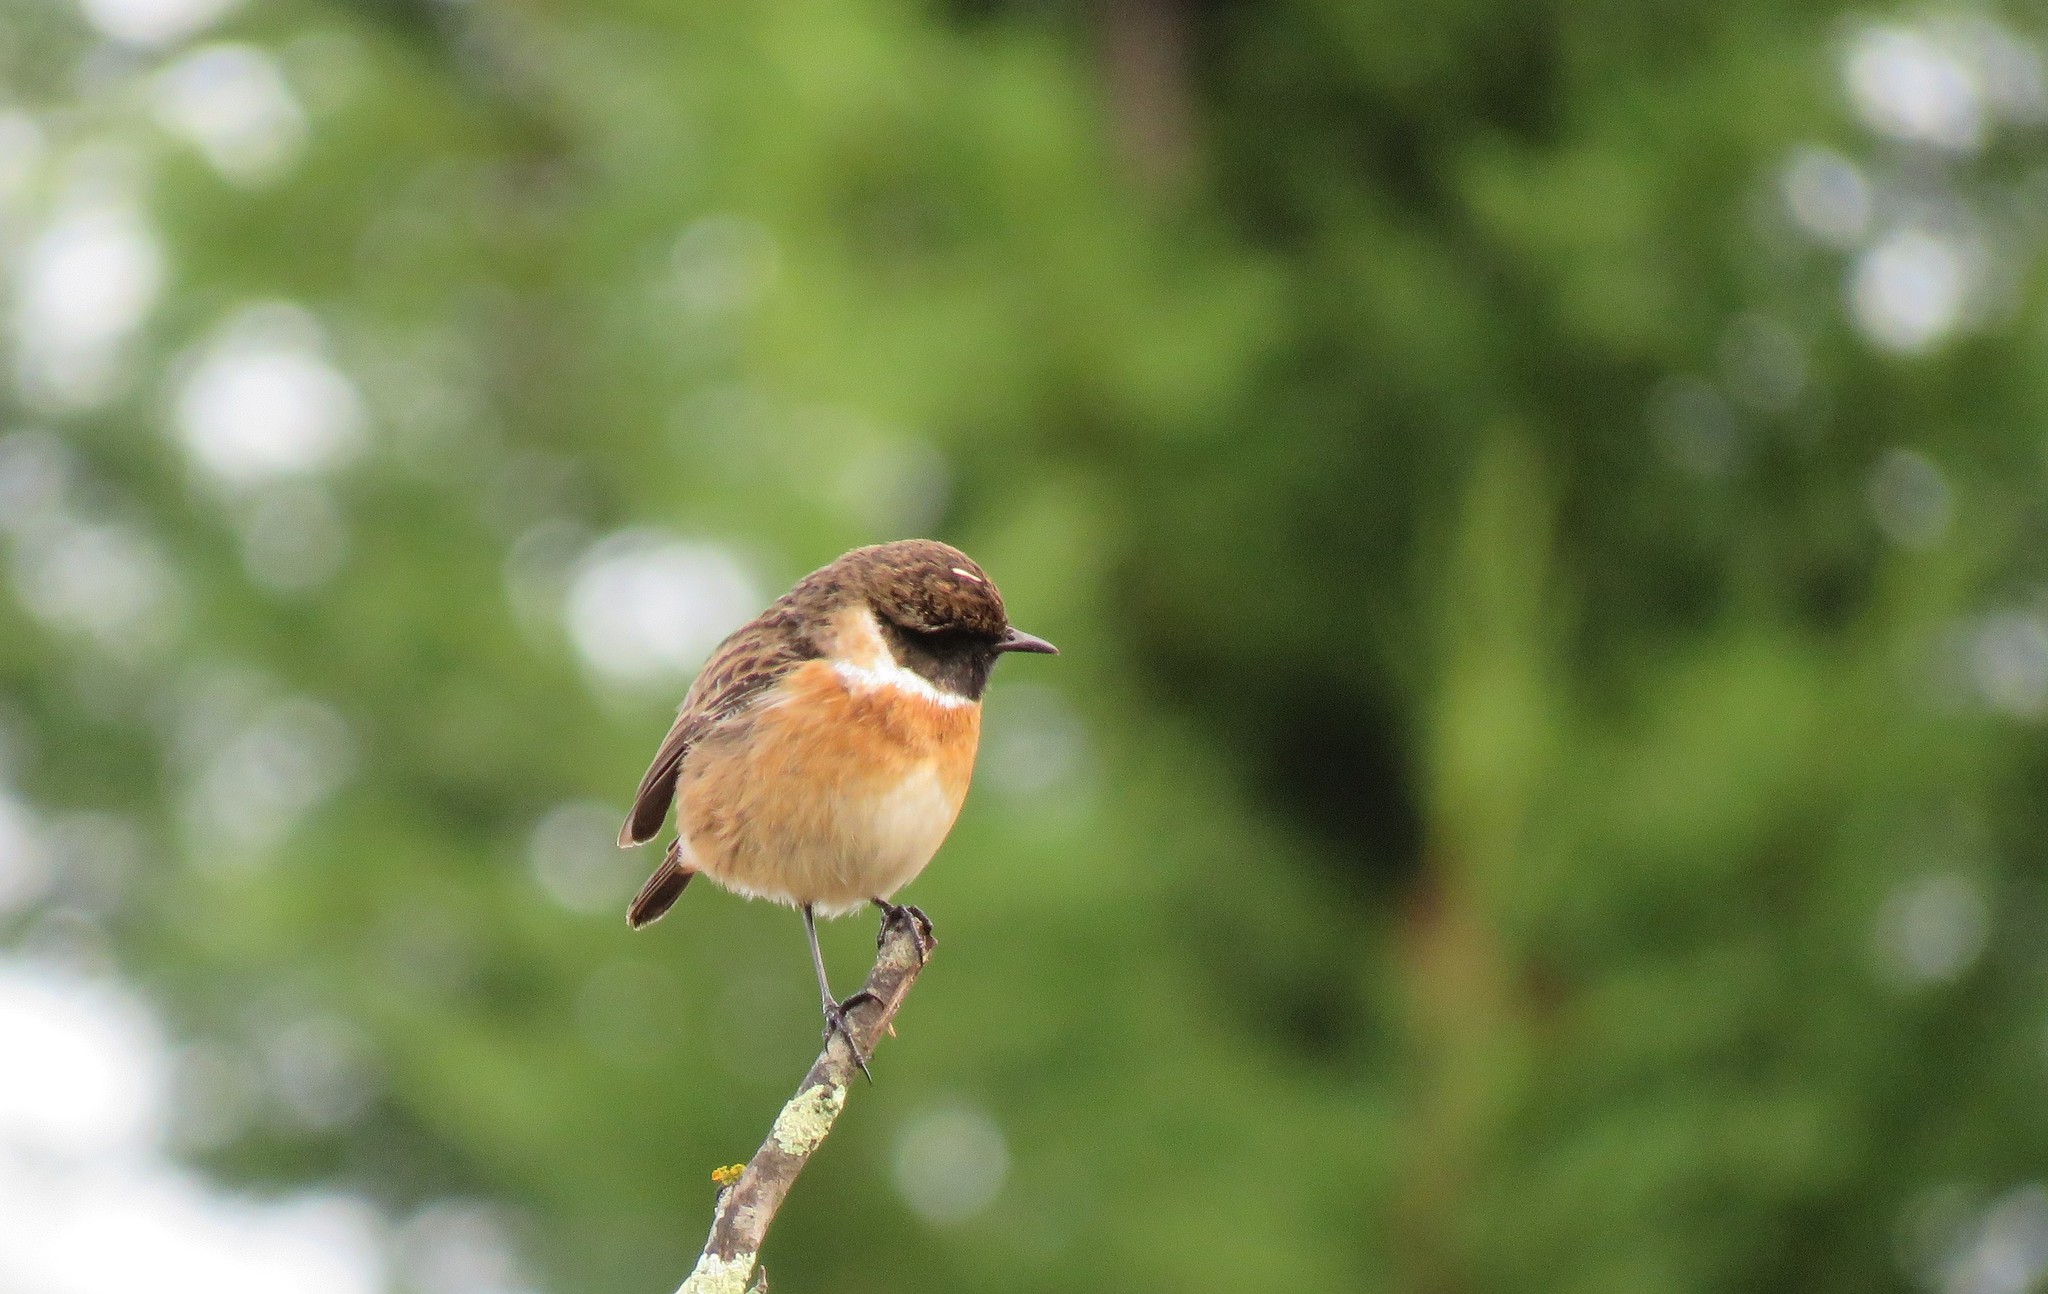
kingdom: Animalia
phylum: Chordata
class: Aves
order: Passeriformes
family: Muscicapidae
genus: Saxicola
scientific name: Saxicola rubicola
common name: European stonechat
